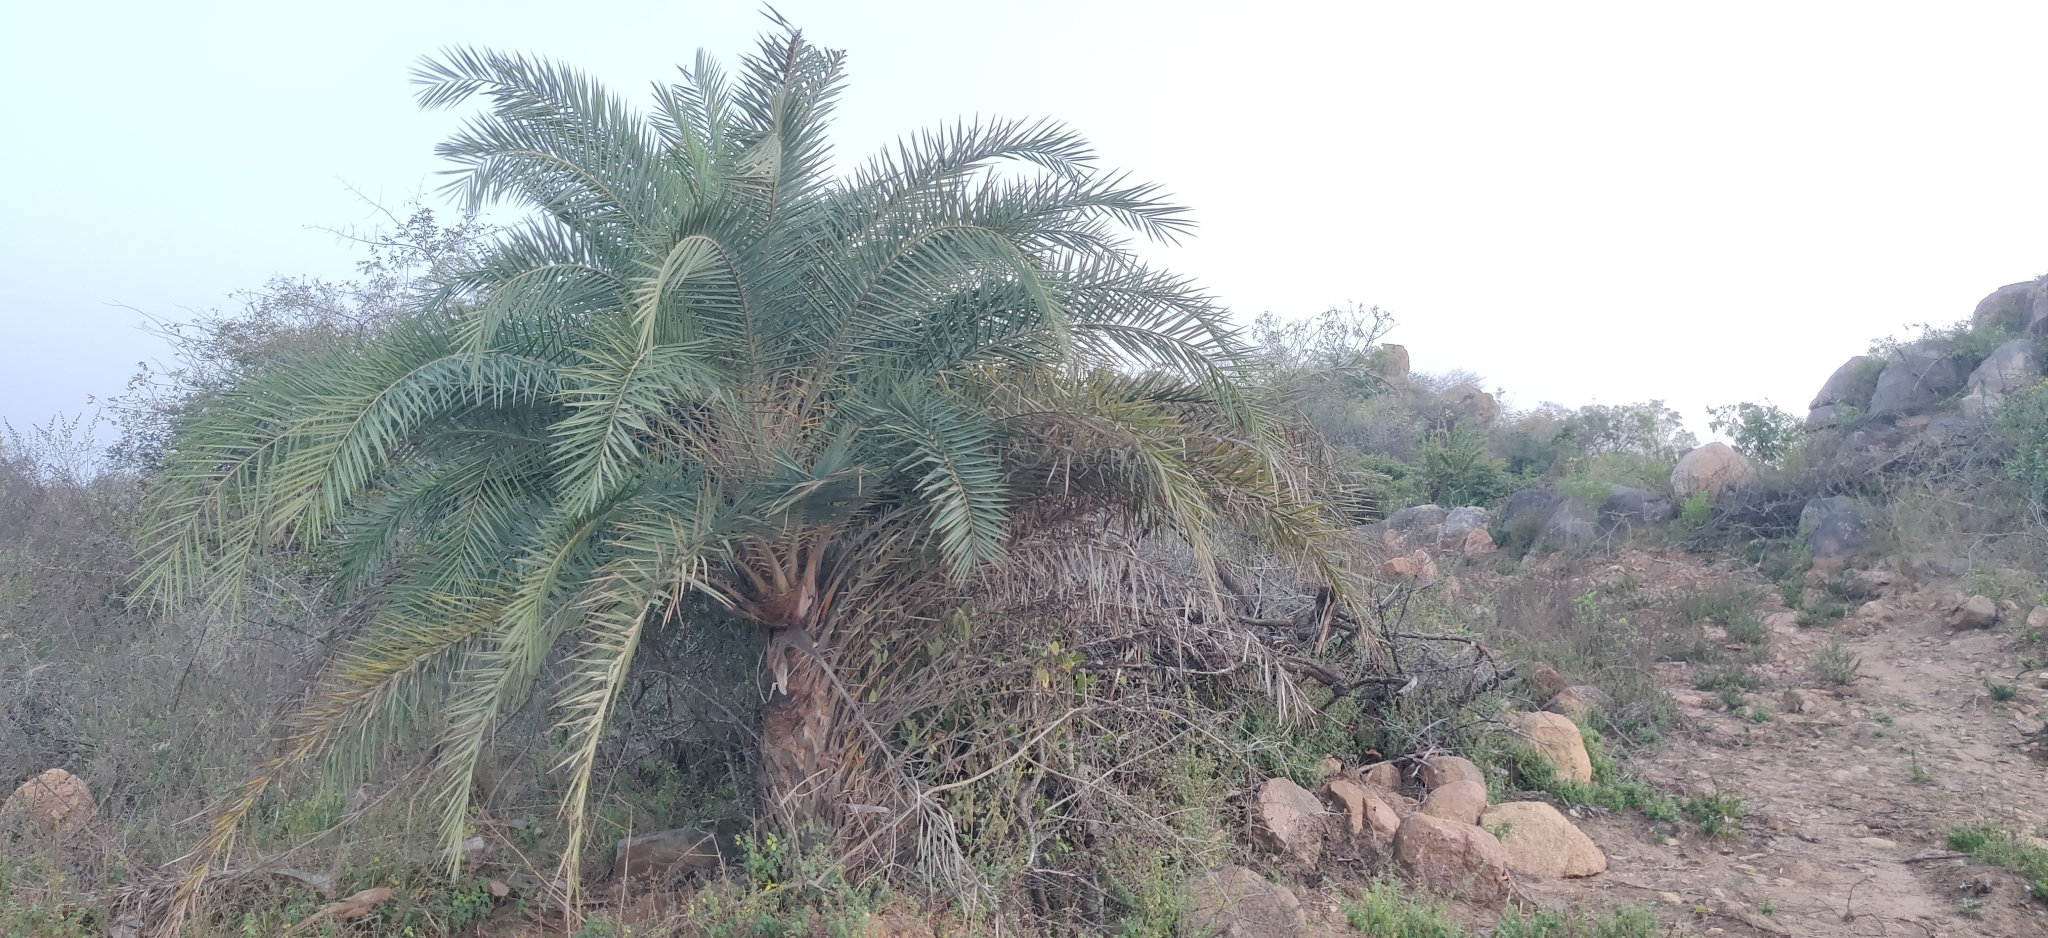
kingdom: Plantae
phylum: Tracheophyta
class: Liliopsida
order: Arecales
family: Arecaceae
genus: Phoenix
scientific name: Phoenix sylvestris
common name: Wild date palm
